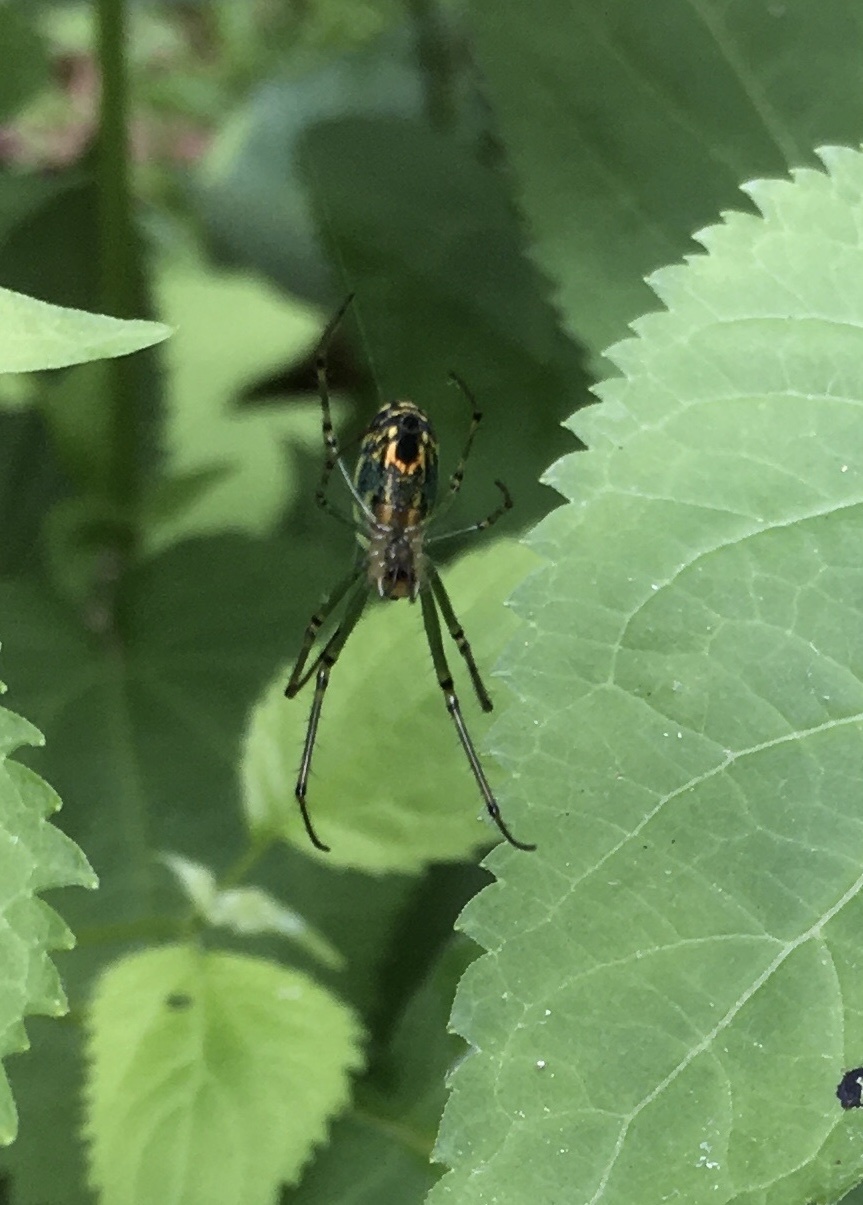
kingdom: Animalia
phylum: Arthropoda
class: Arachnida
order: Araneae
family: Tetragnathidae
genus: Leucauge
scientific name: Leucauge venusta
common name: Longjawed orb weavers
